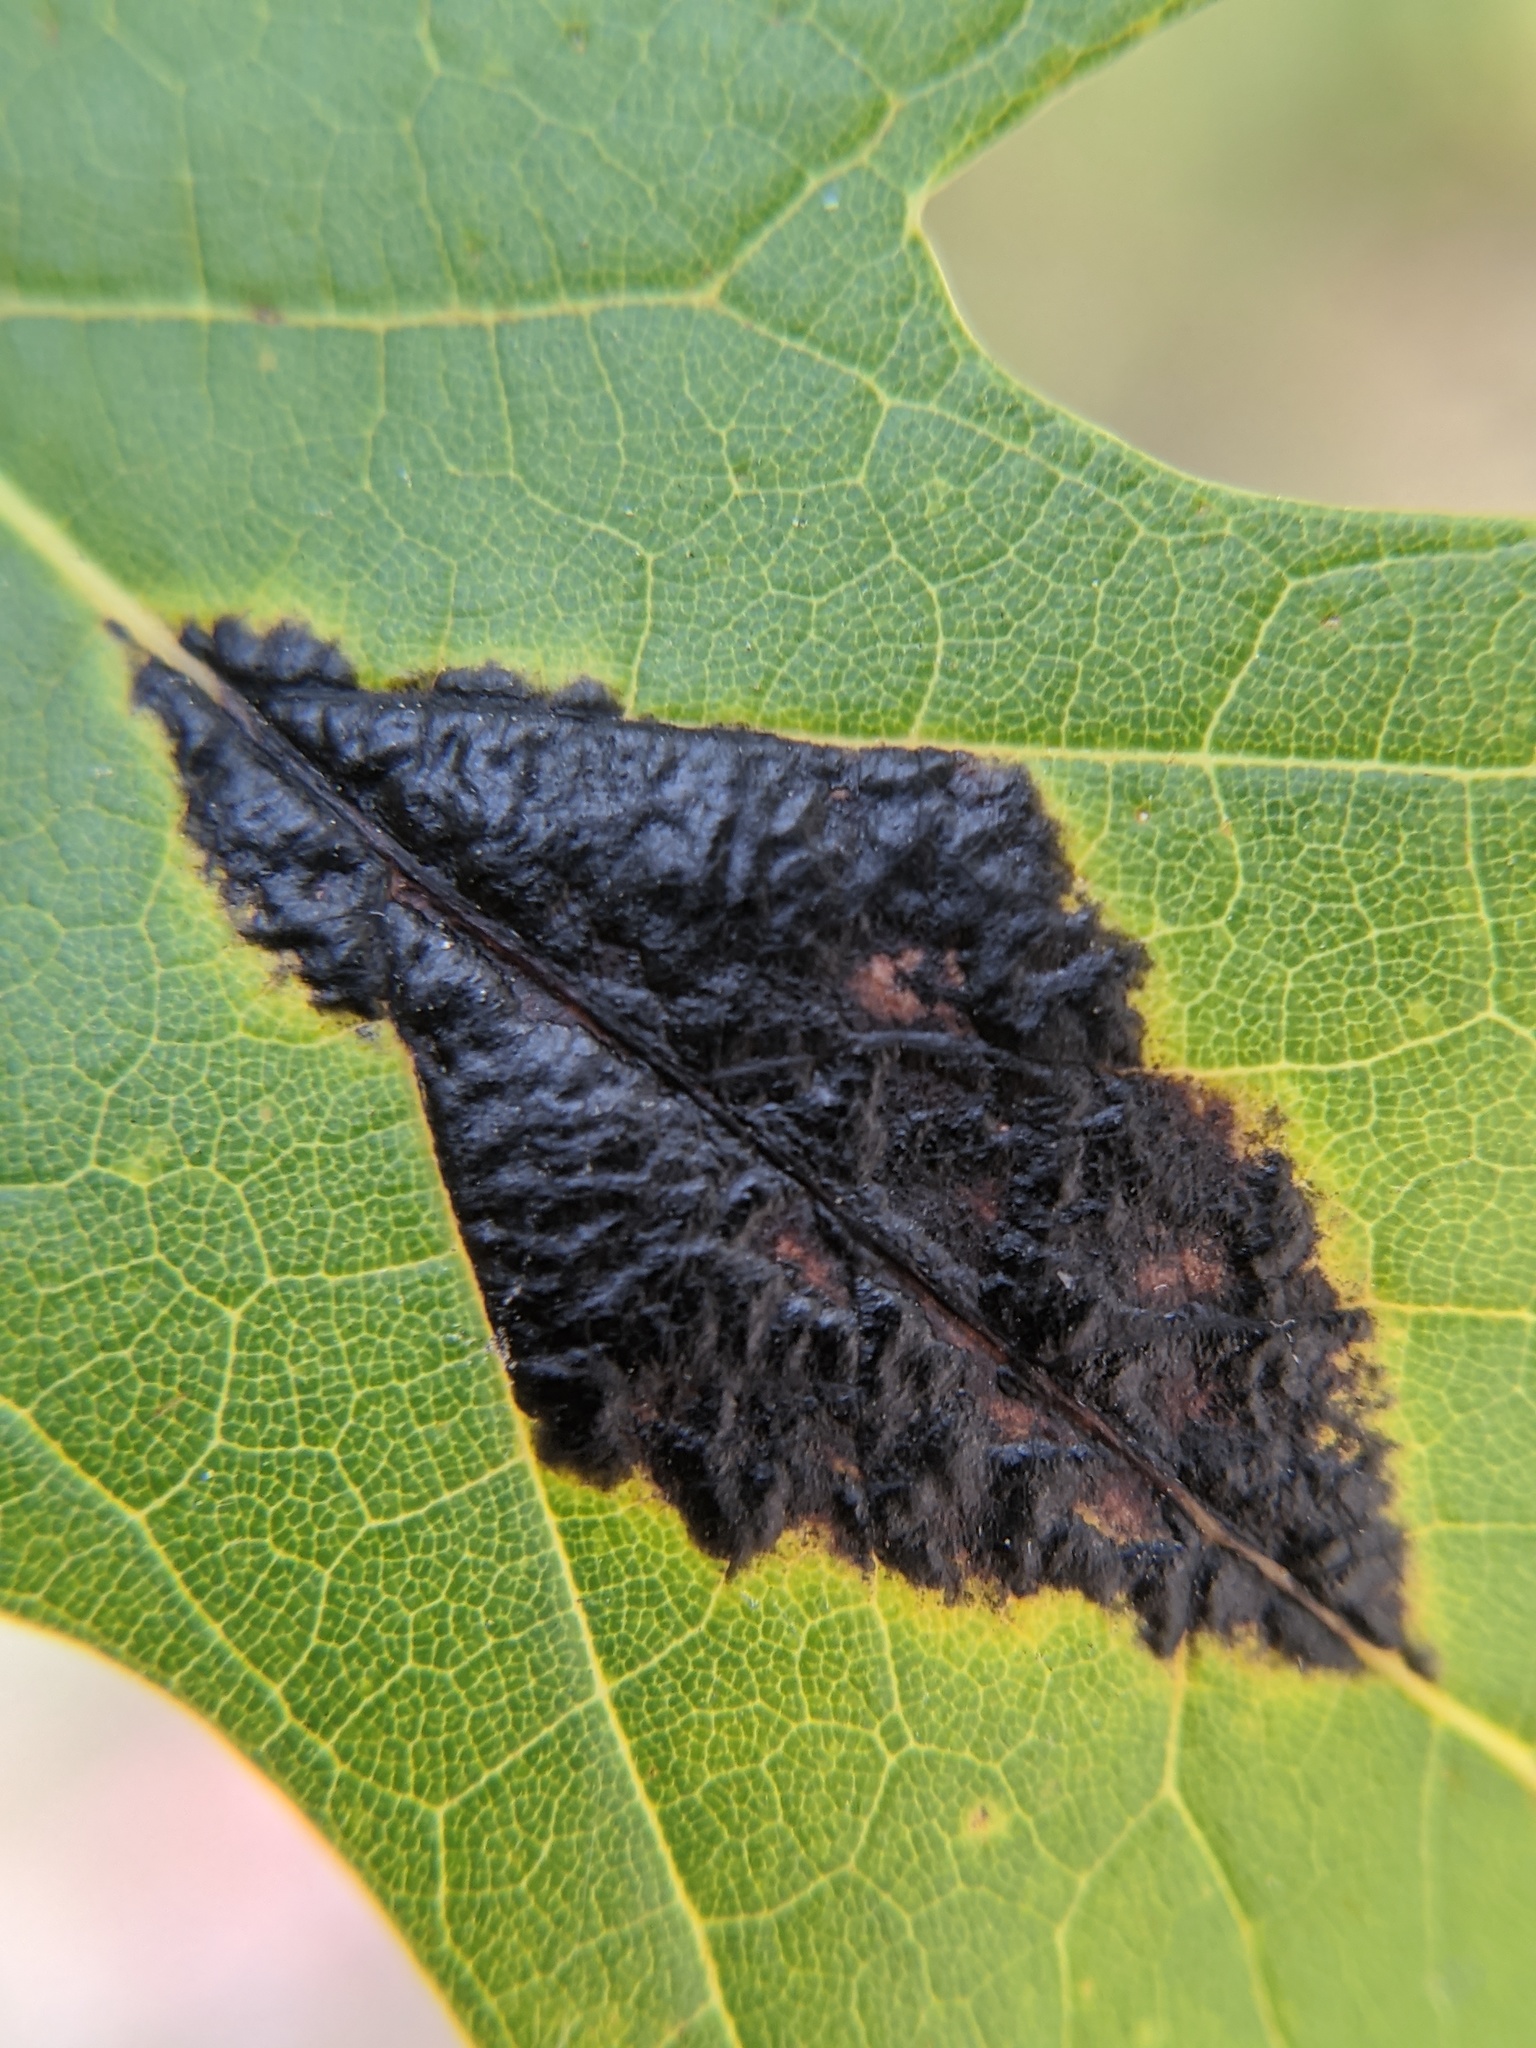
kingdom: Fungi
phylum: Ascomycota
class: Leotiomycetes
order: Rhytismatales
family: Rhytismataceae
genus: Rhytisma
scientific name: Rhytisma americanum
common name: American tar spot
